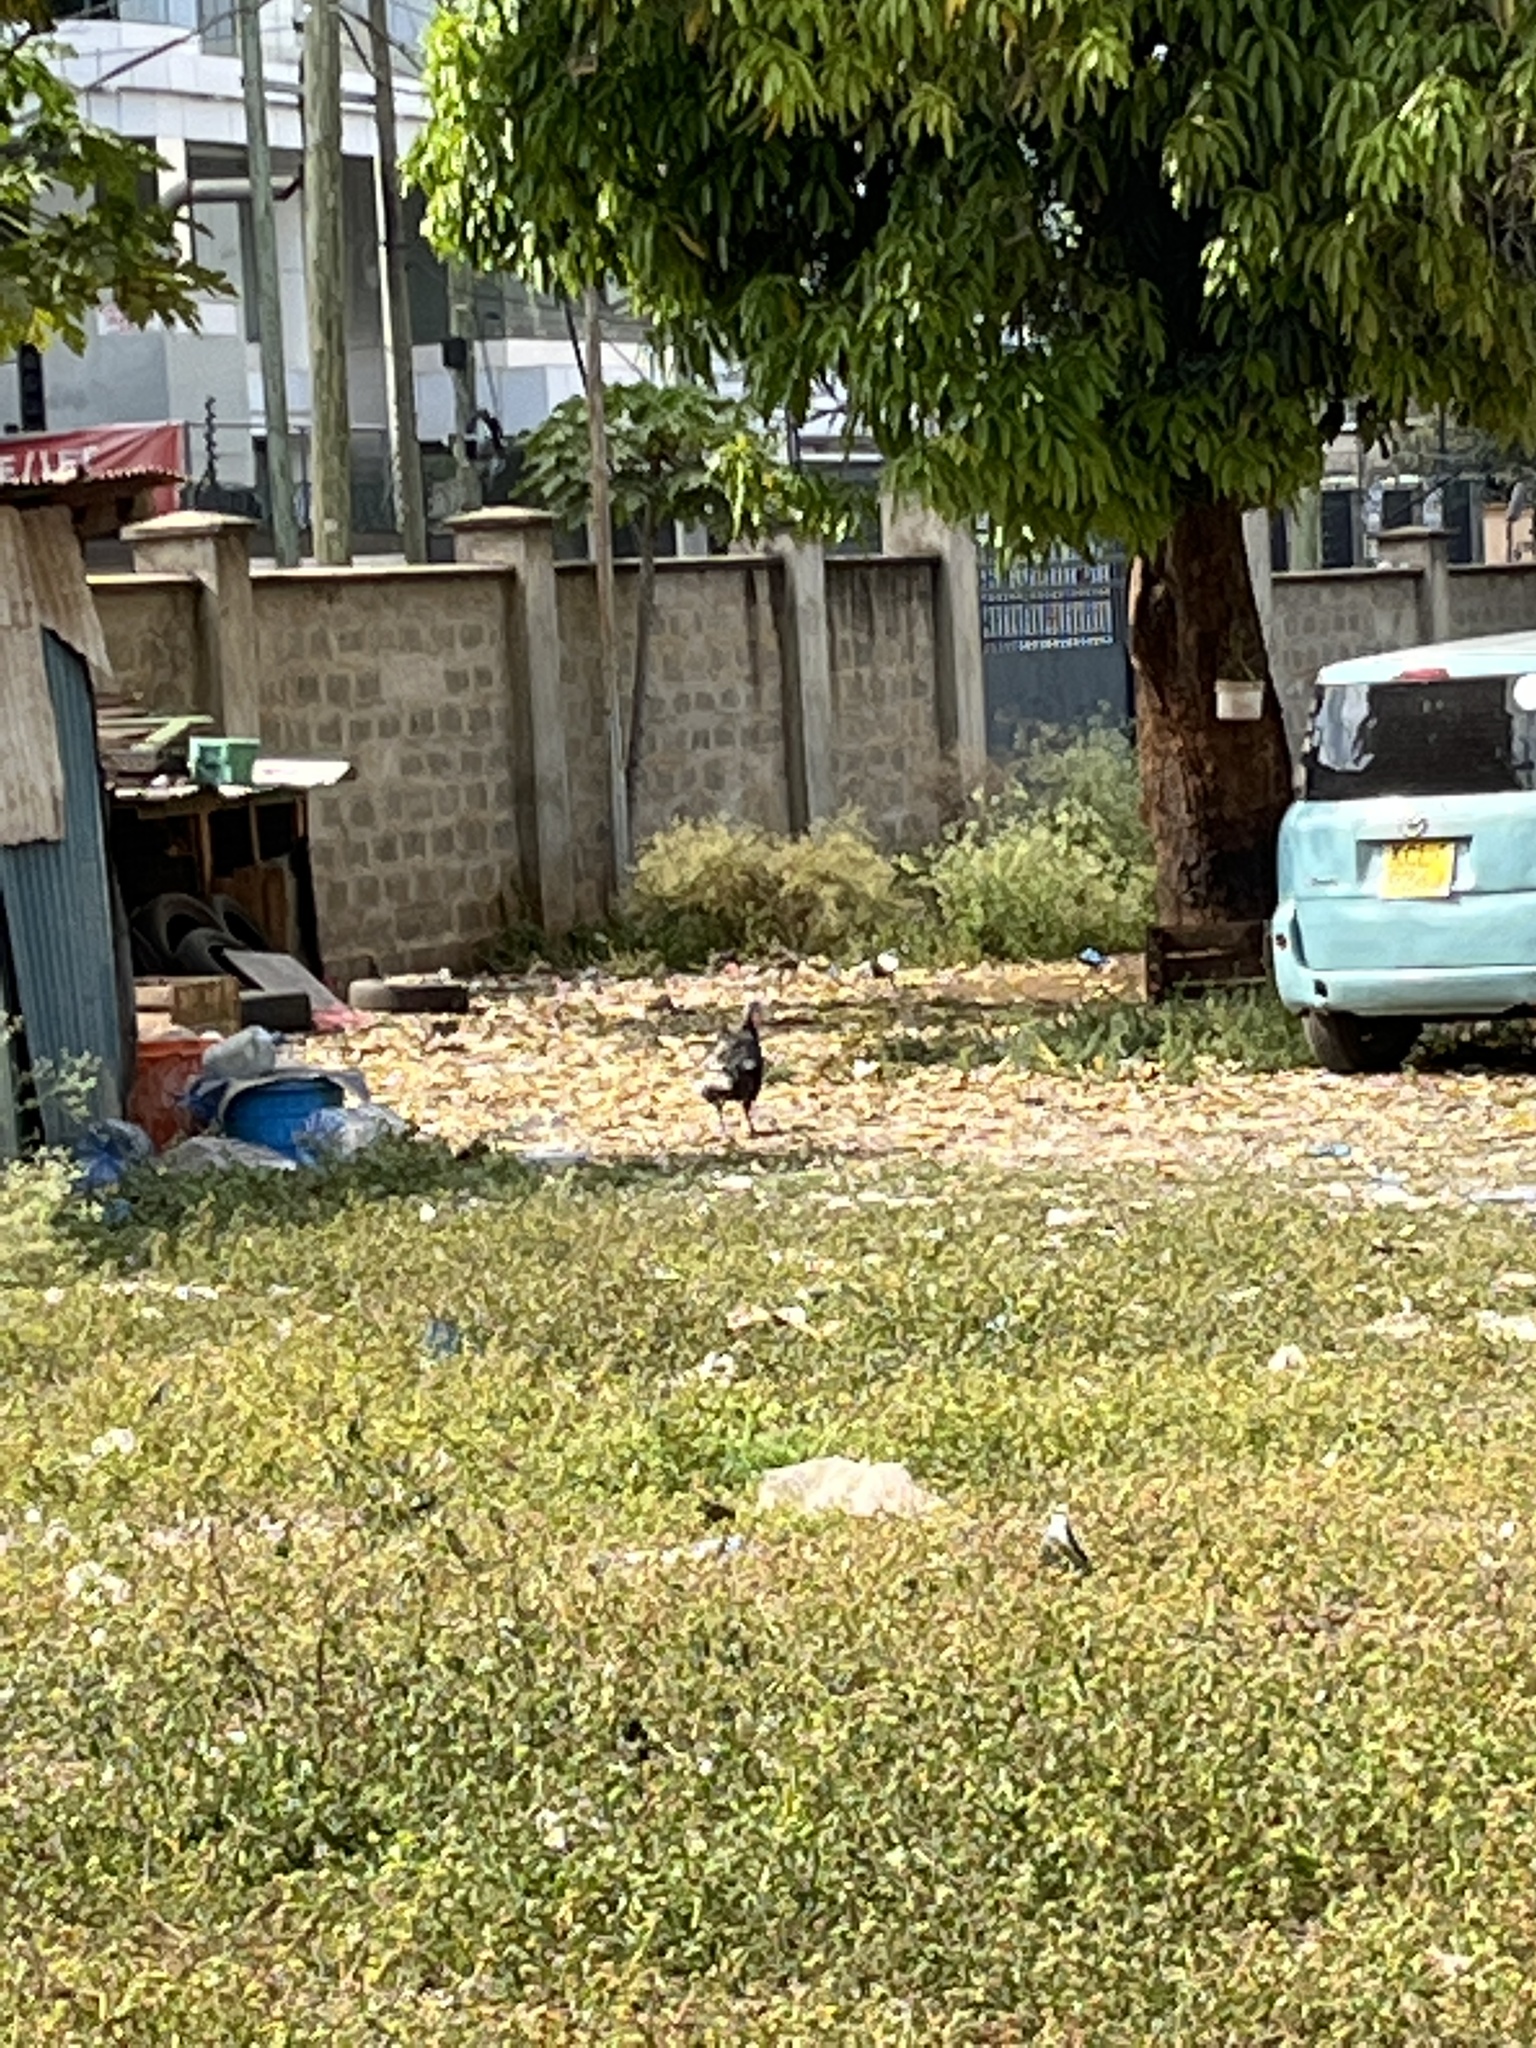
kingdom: Animalia
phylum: Chordata
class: Aves
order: Galliformes
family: Phasianidae
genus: Meleagris
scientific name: Meleagris gallopavo
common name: Wild turkey
